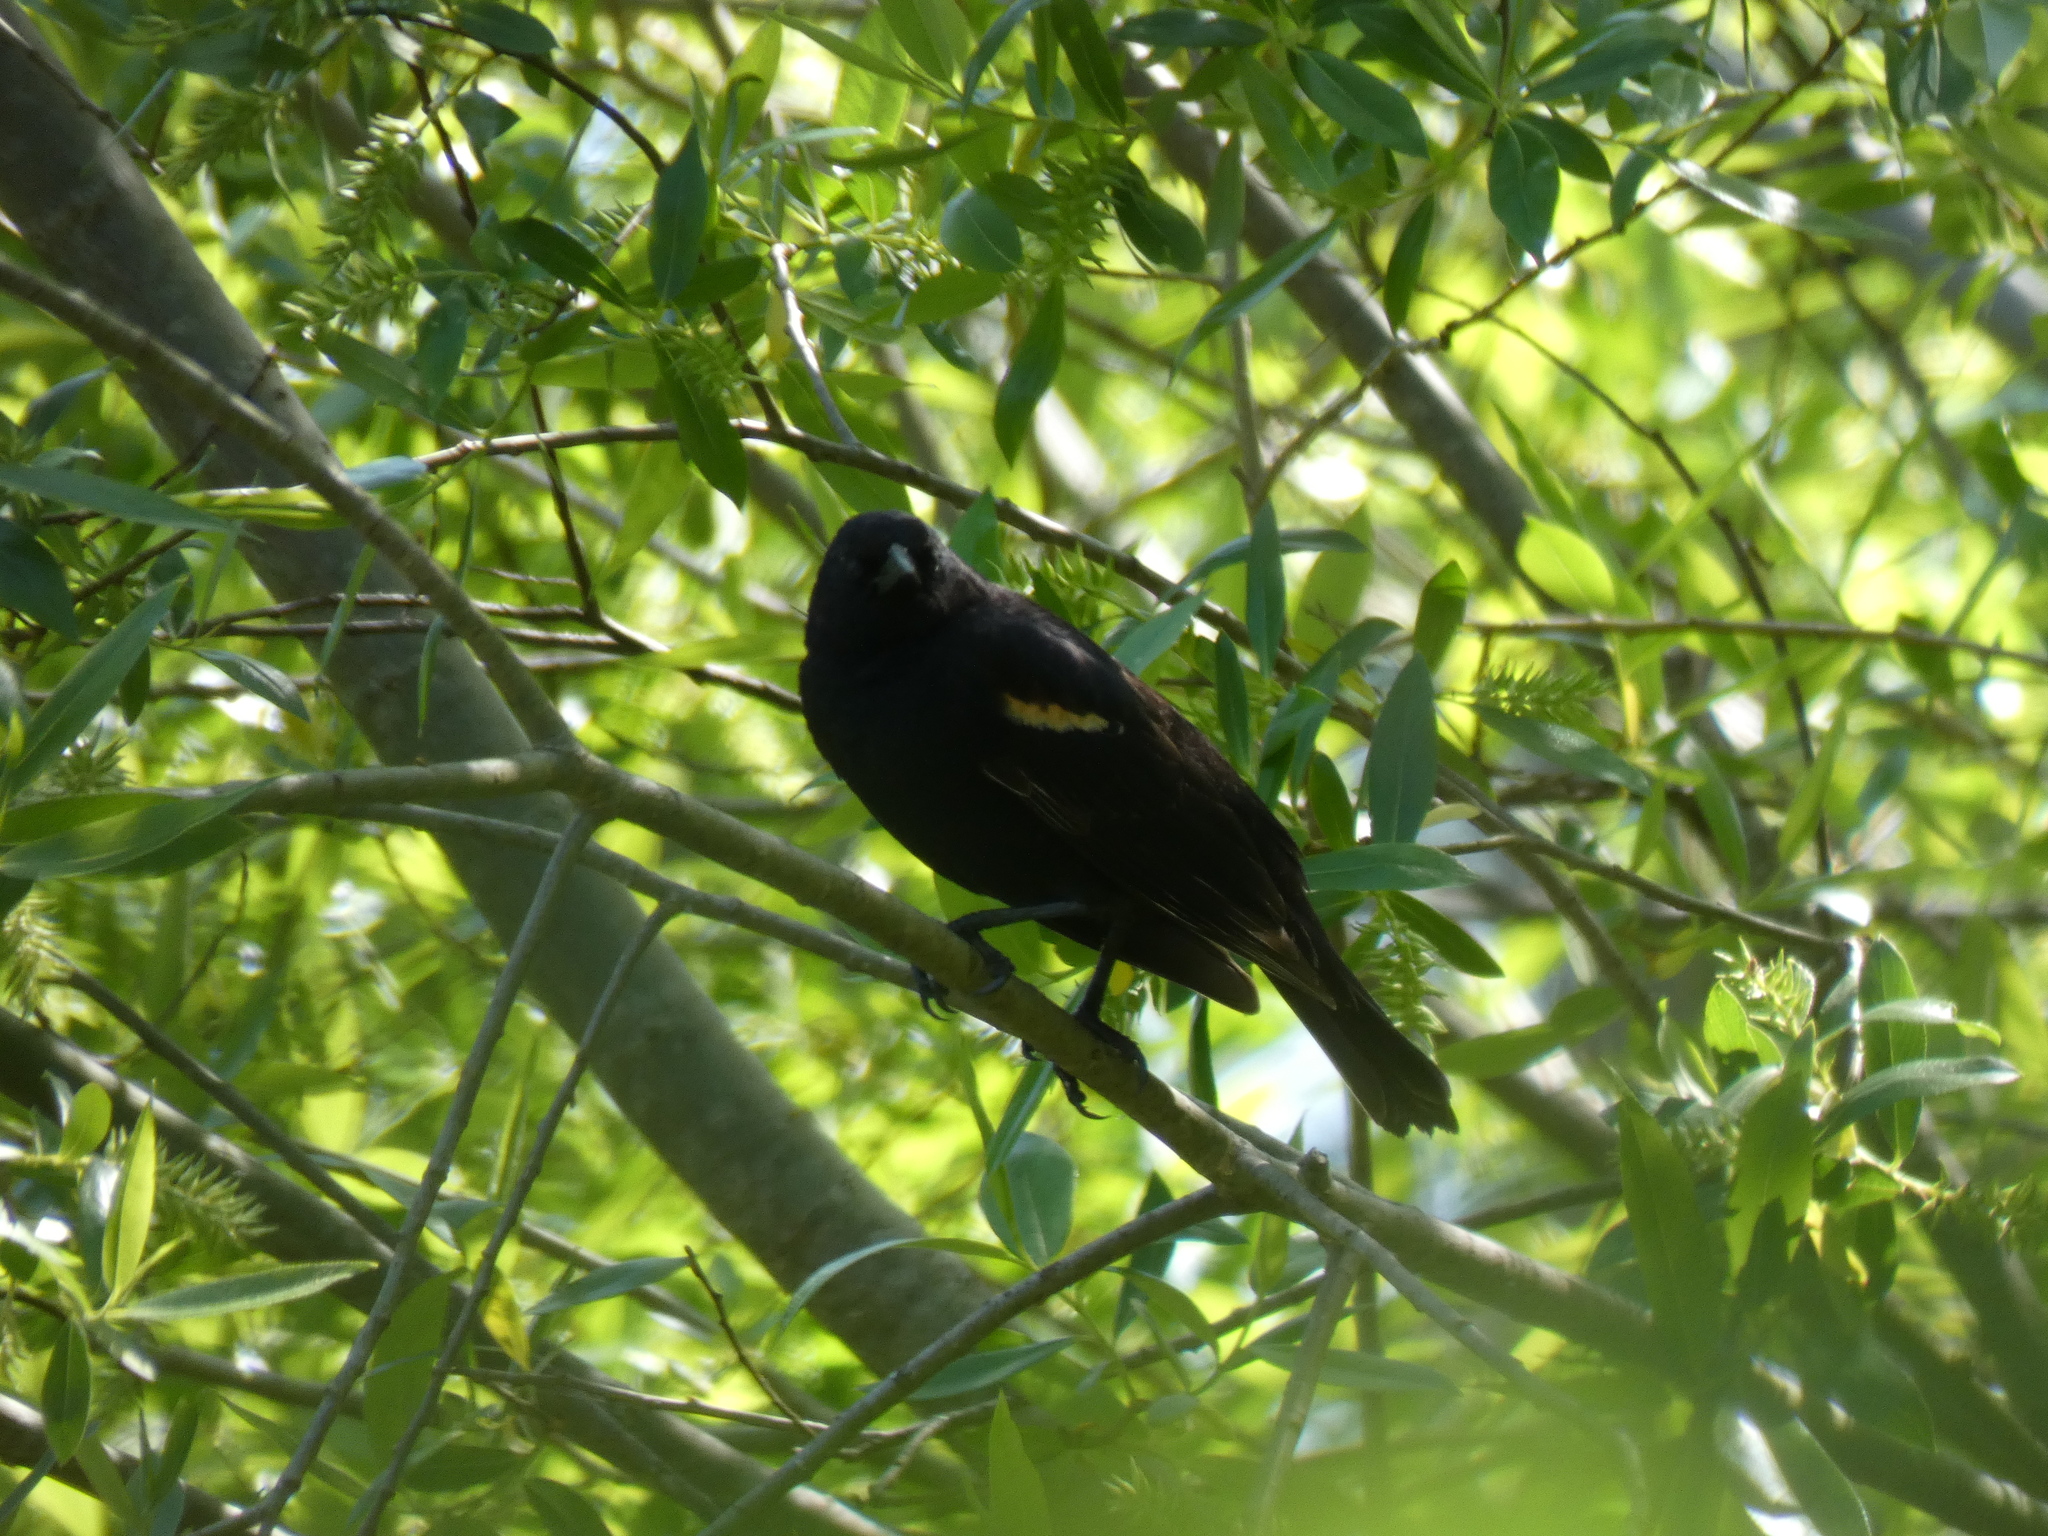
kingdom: Animalia
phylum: Chordata
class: Aves
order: Passeriformes
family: Icteridae
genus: Agelaius
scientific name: Agelaius phoeniceus
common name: Red-winged blackbird
